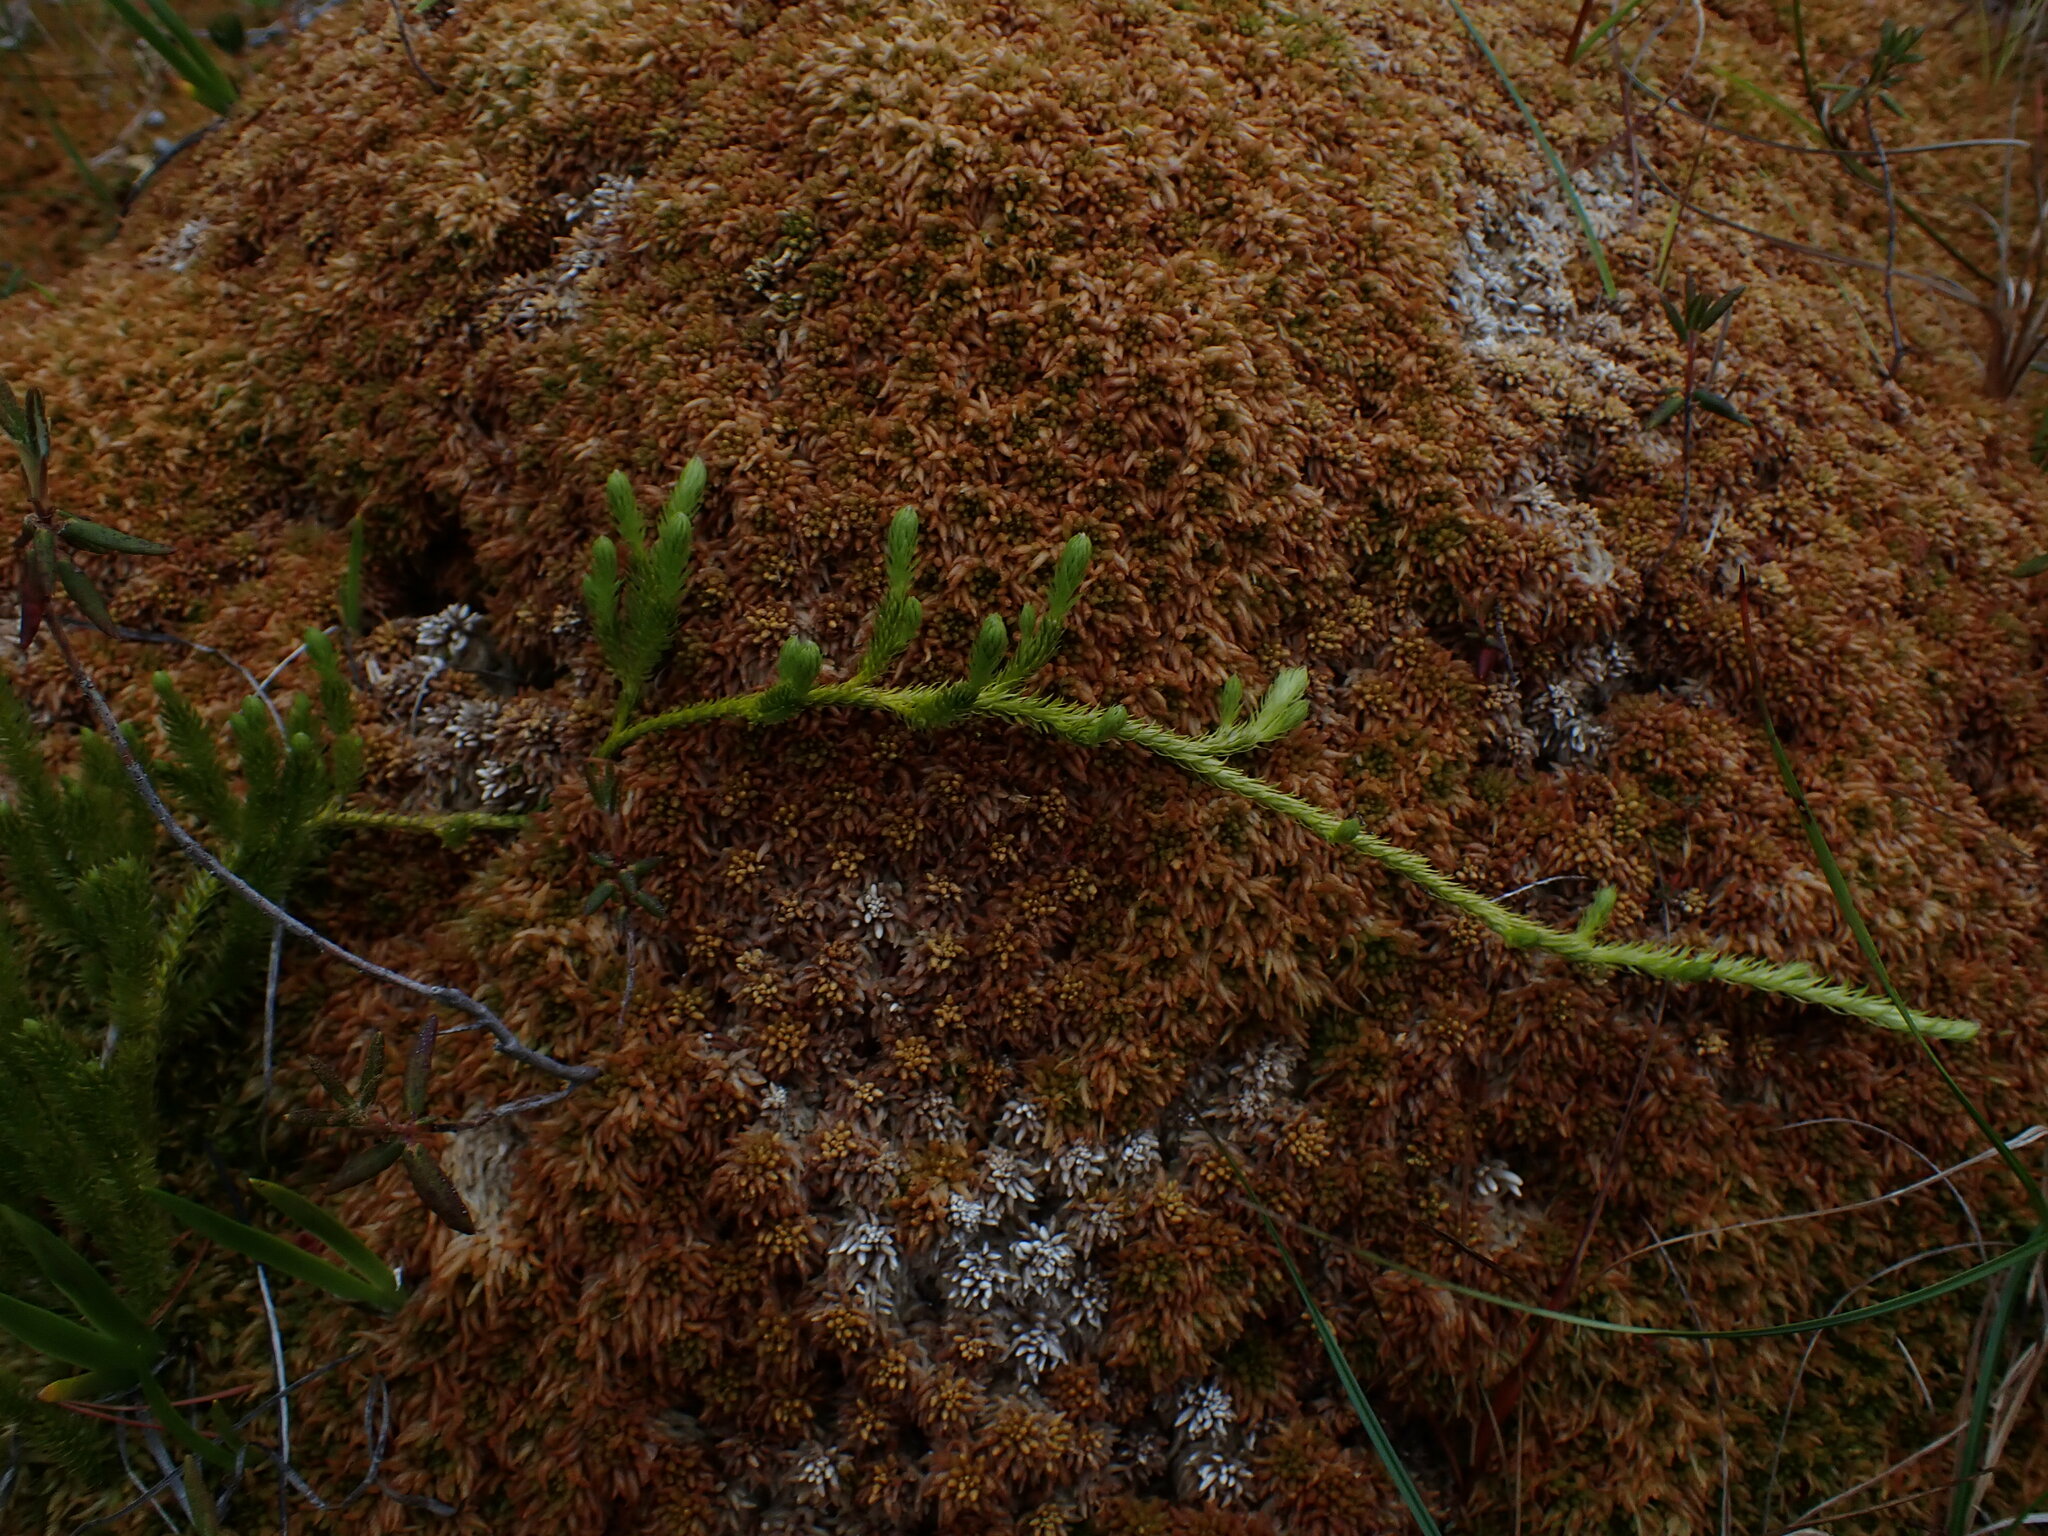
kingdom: Plantae
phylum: Tracheophyta
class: Lycopodiopsida
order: Lycopodiales
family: Lycopodiaceae
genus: Lycopodium
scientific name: Lycopodium clavatum
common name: Stag's-horn clubmoss
